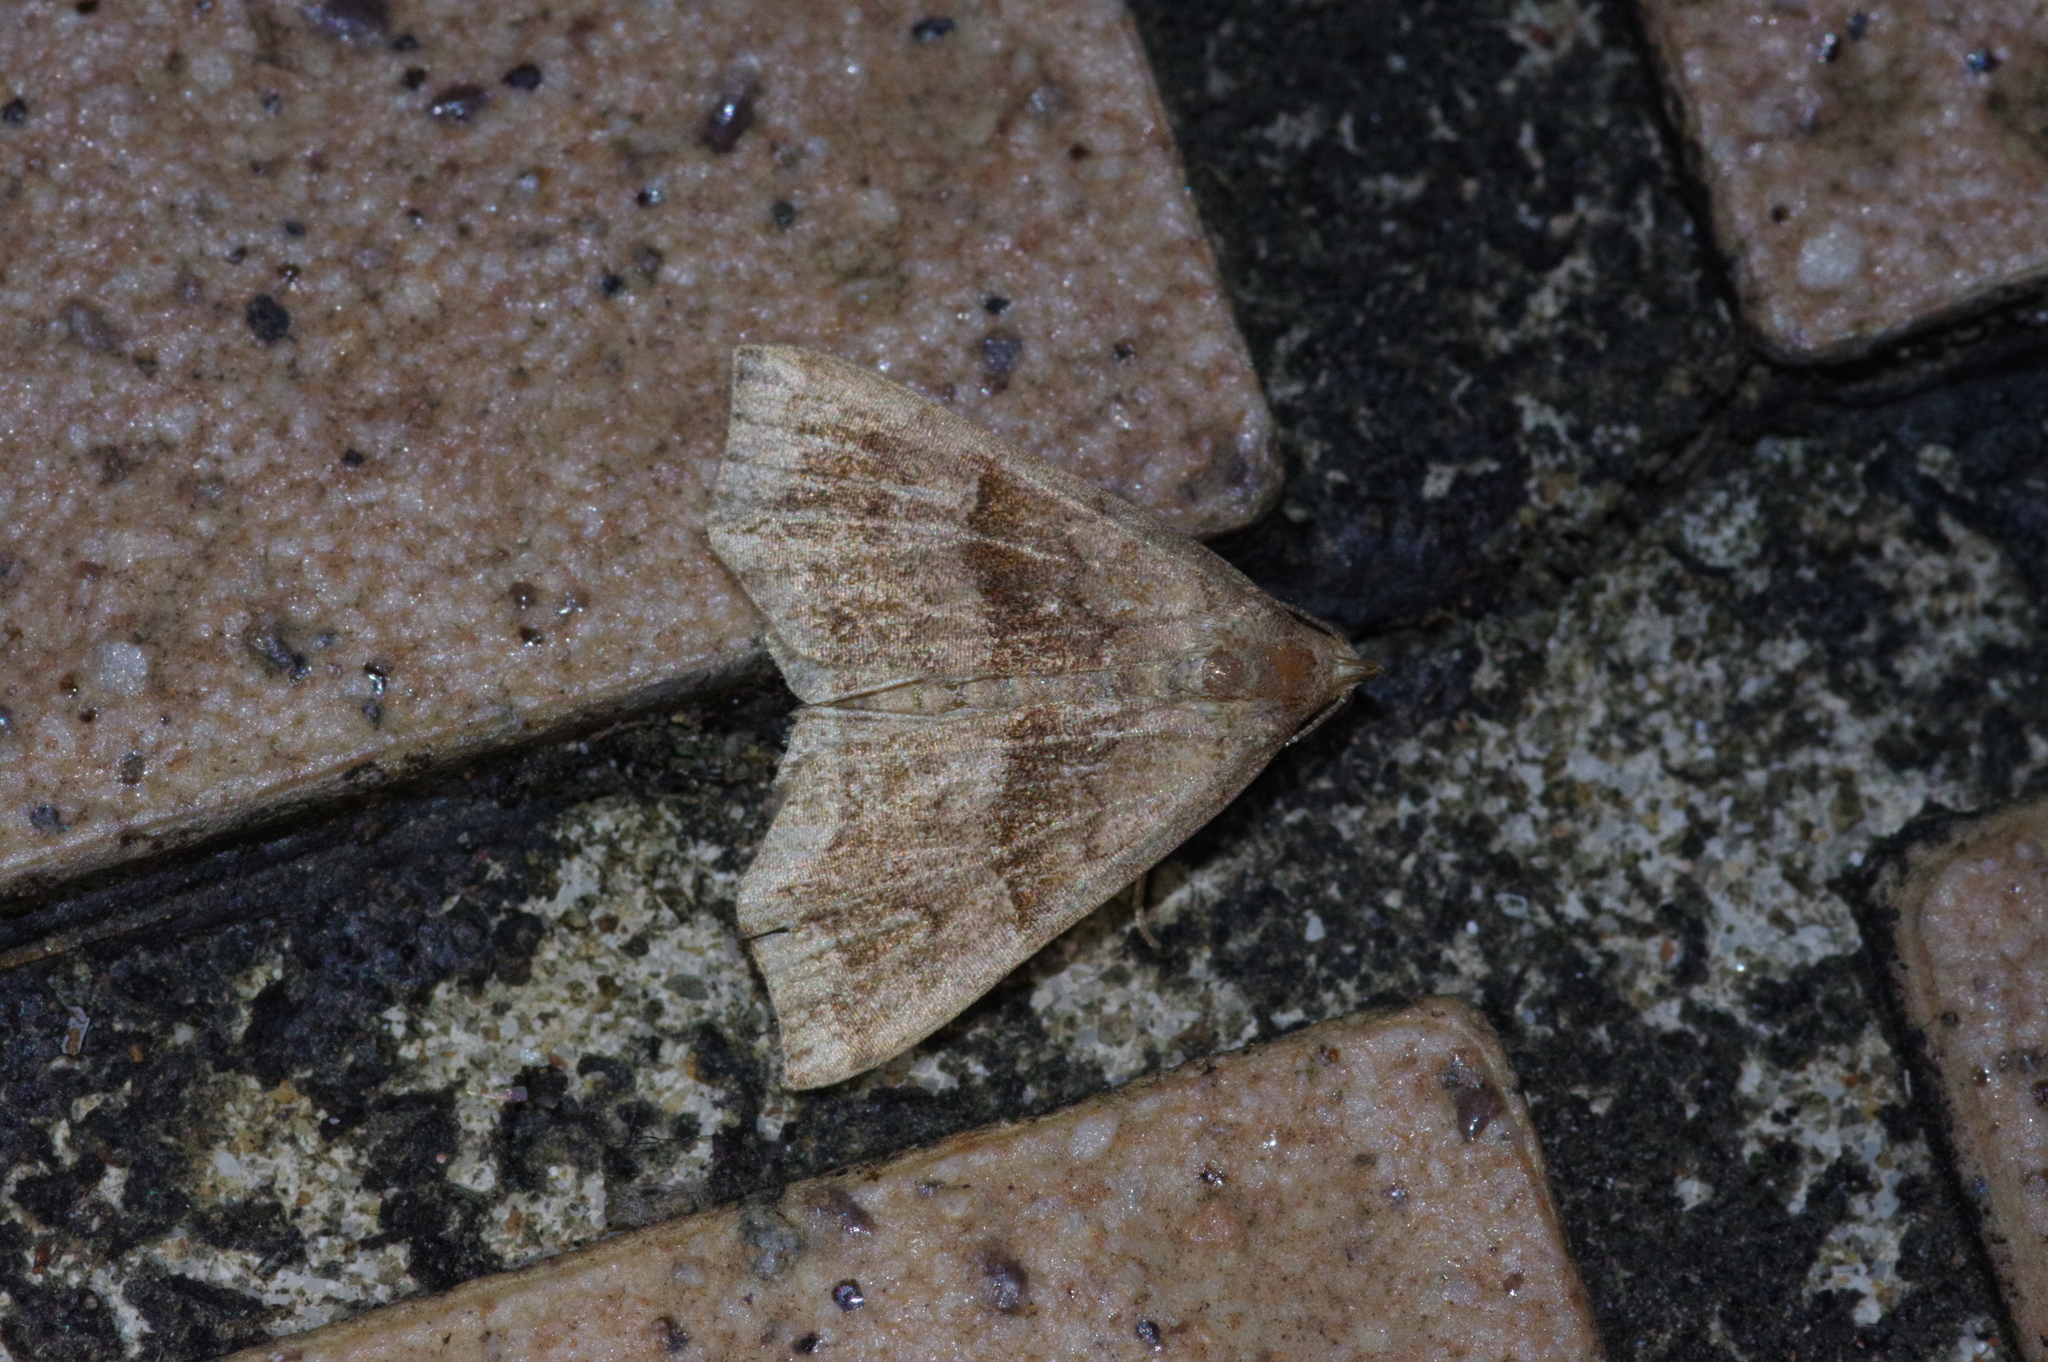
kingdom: Animalia
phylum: Arthropoda
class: Insecta
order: Lepidoptera
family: Erebidae
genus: Polypogon
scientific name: Polypogon Hipoepa fractalis
